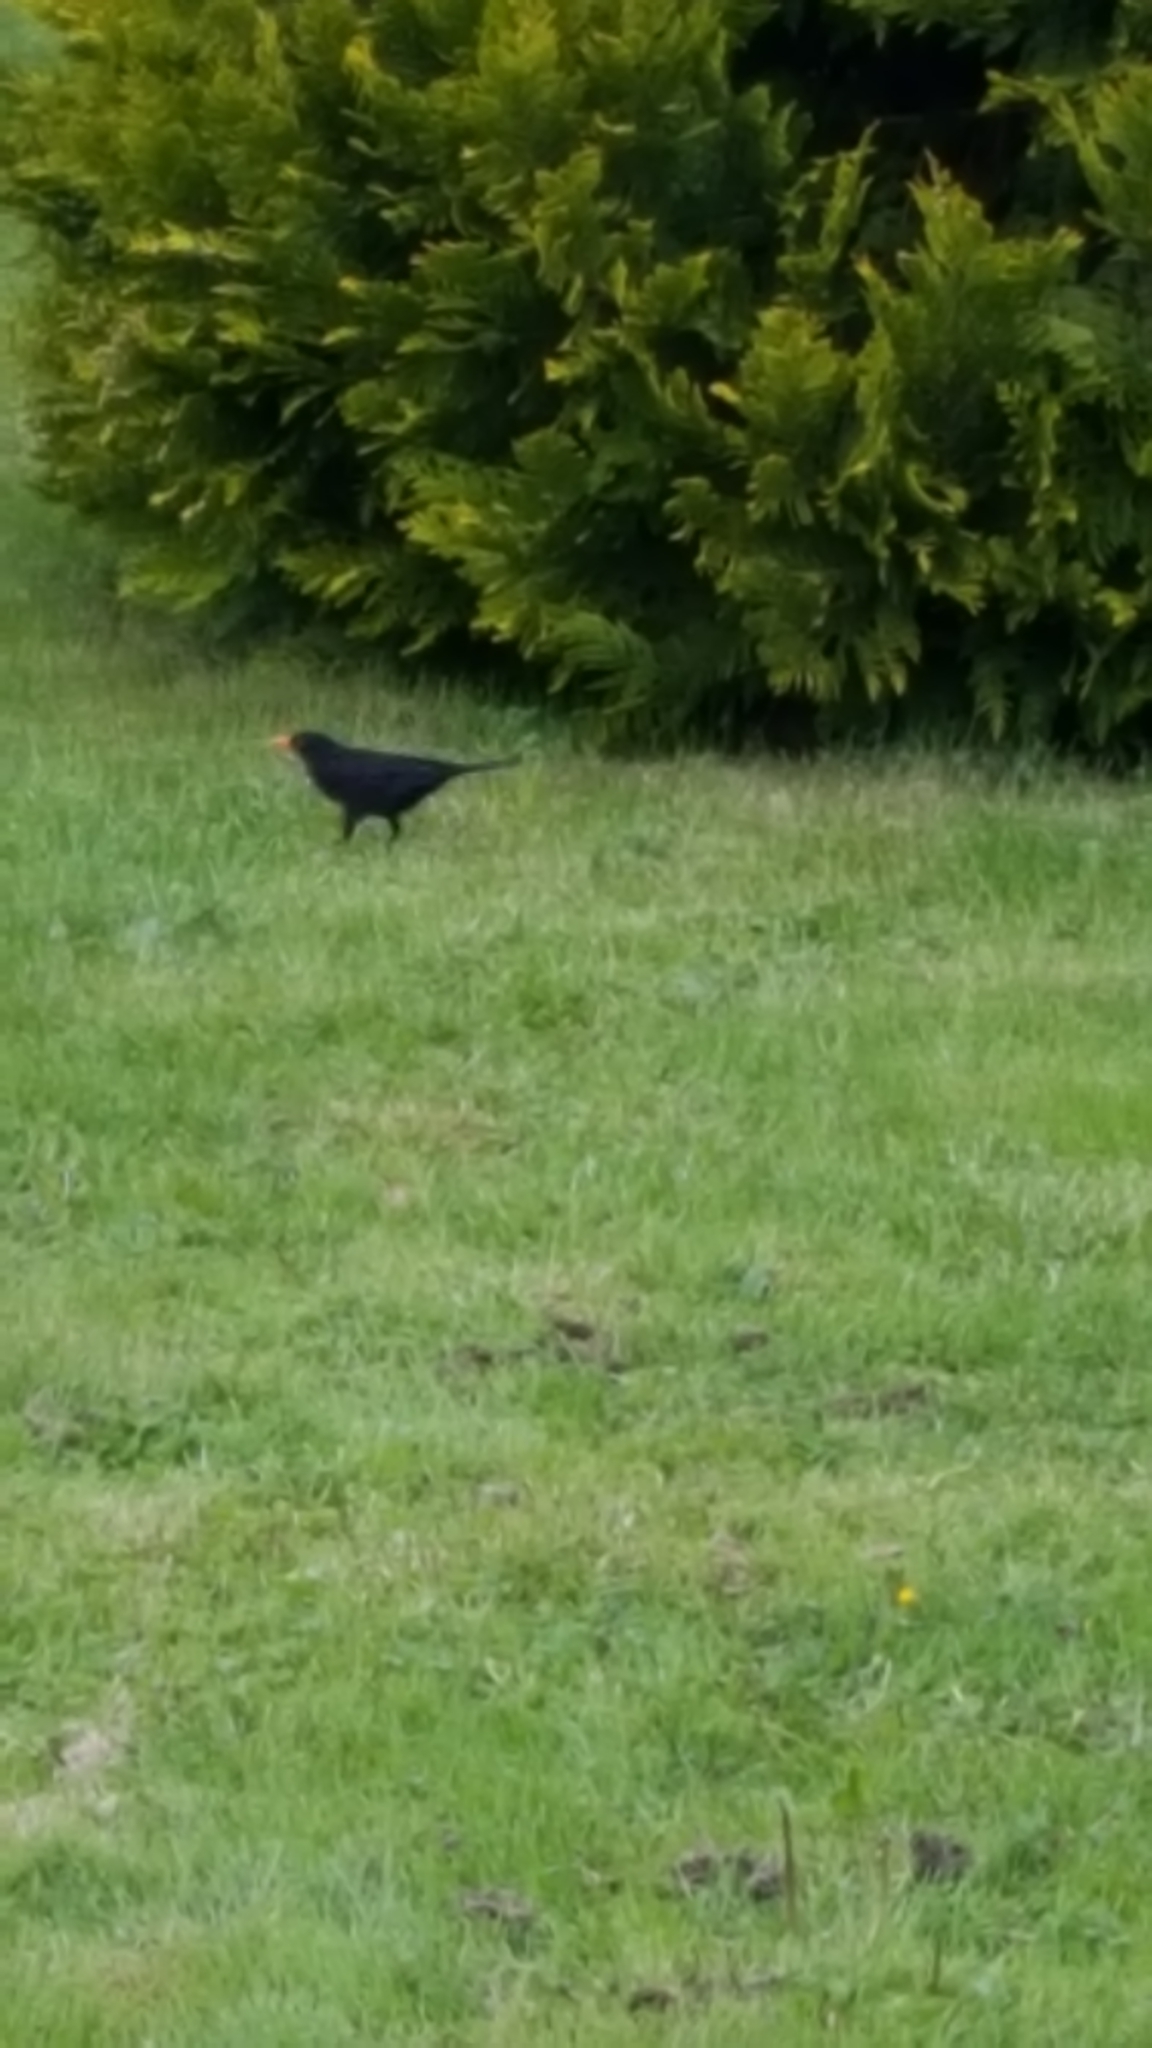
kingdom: Animalia
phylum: Chordata
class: Aves
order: Passeriformes
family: Turdidae
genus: Turdus
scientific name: Turdus merula
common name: Common blackbird
